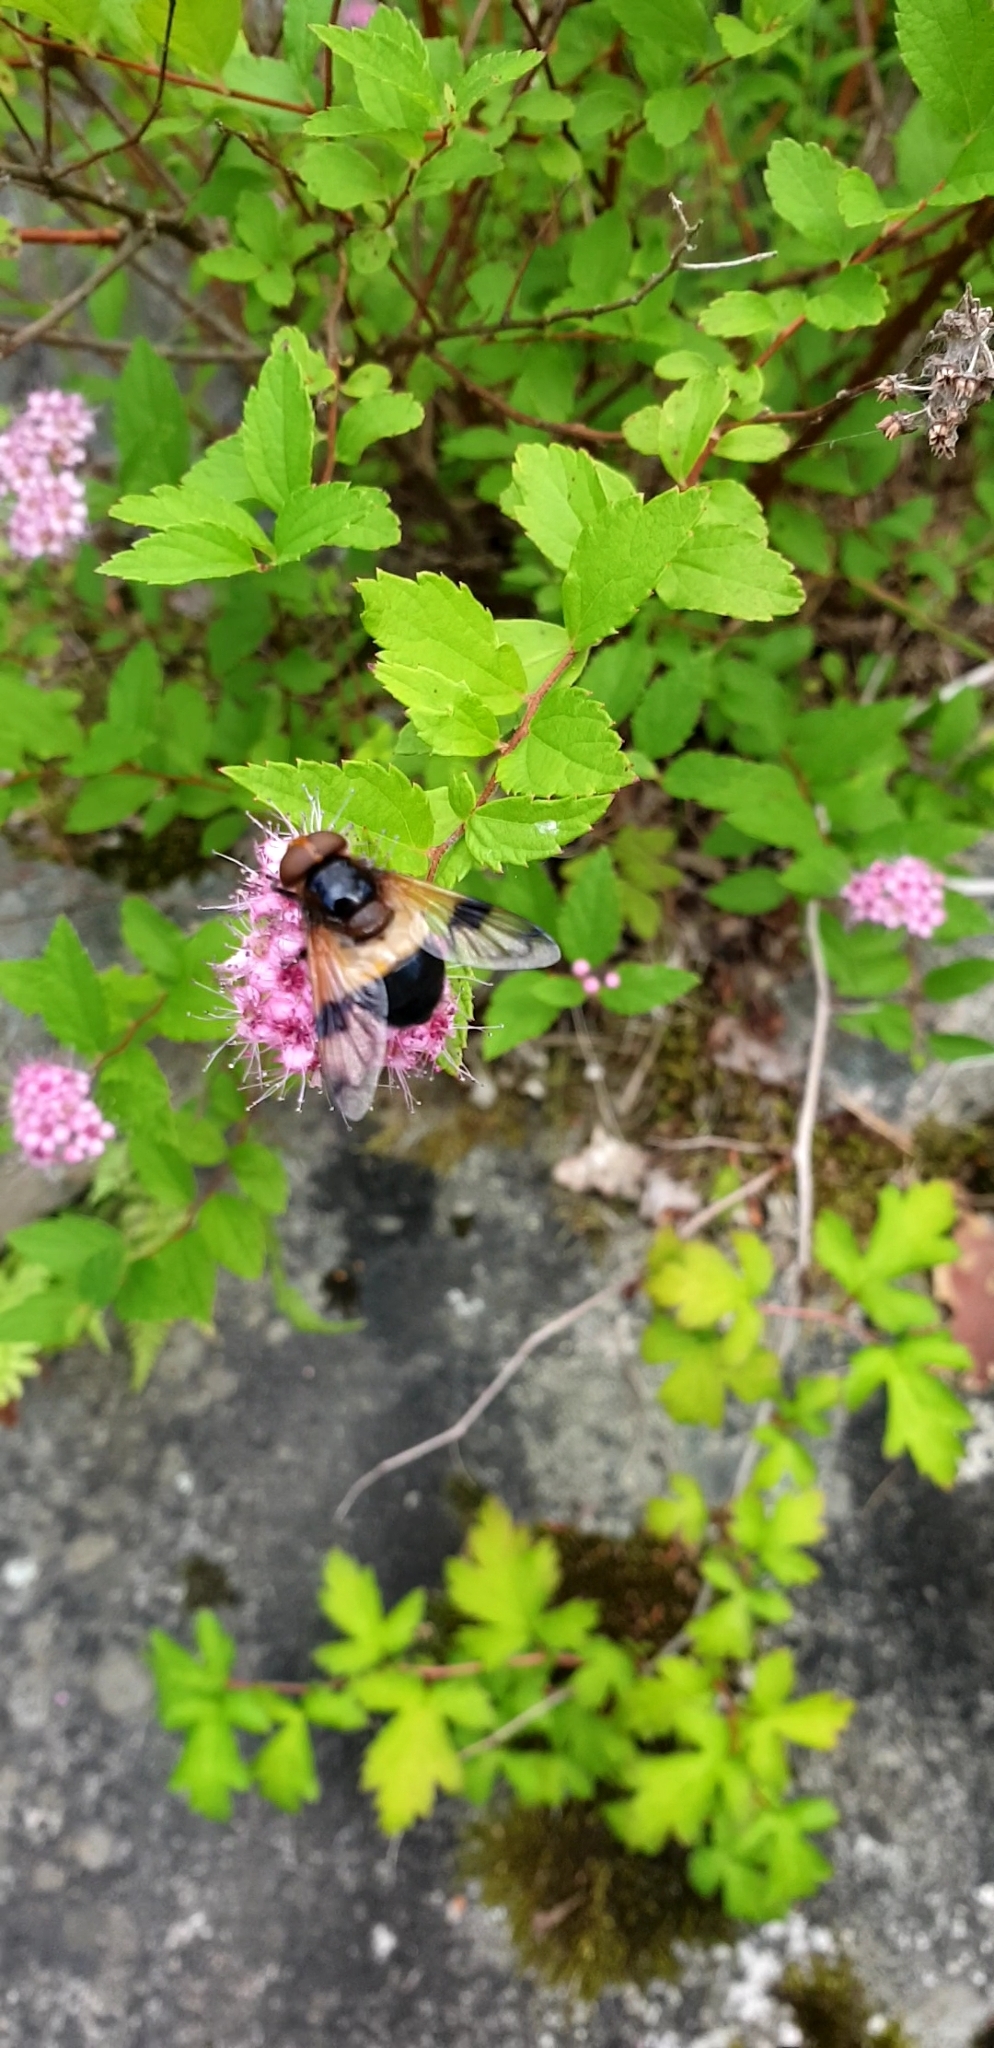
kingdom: Animalia
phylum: Arthropoda
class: Insecta
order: Diptera
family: Syrphidae
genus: Volucella
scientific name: Volucella pellucens
